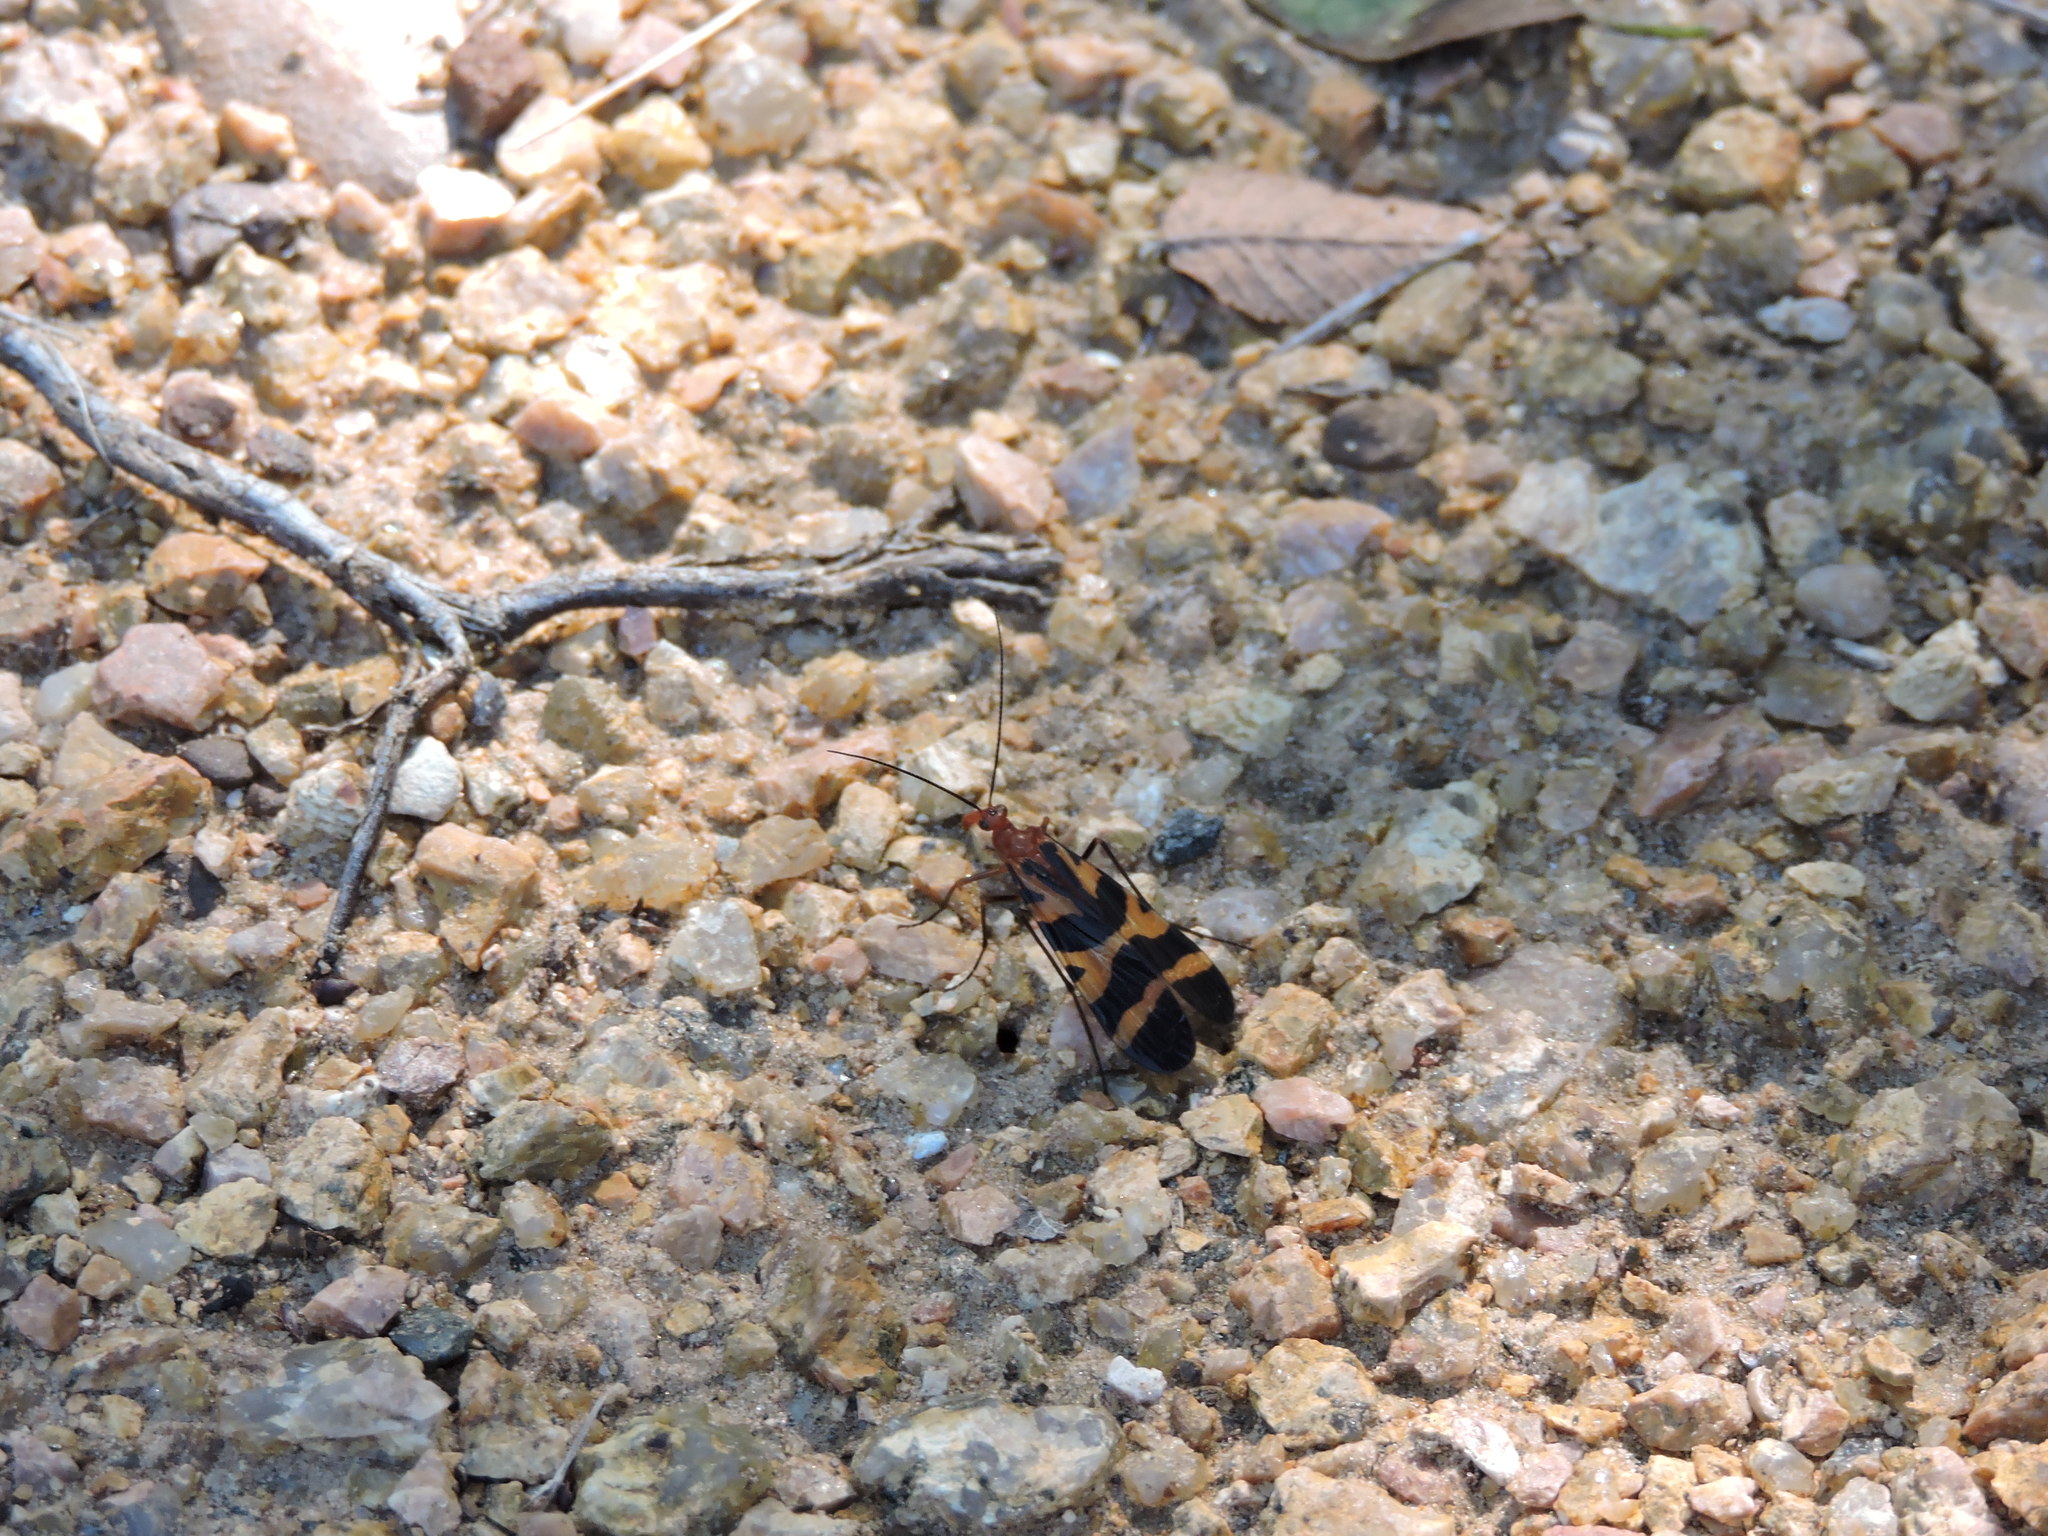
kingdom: Animalia
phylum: Arthropoda
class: Insecta
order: Mecoptera
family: Panorpidae
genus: Panorpa
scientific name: Panorpa nuptialis
